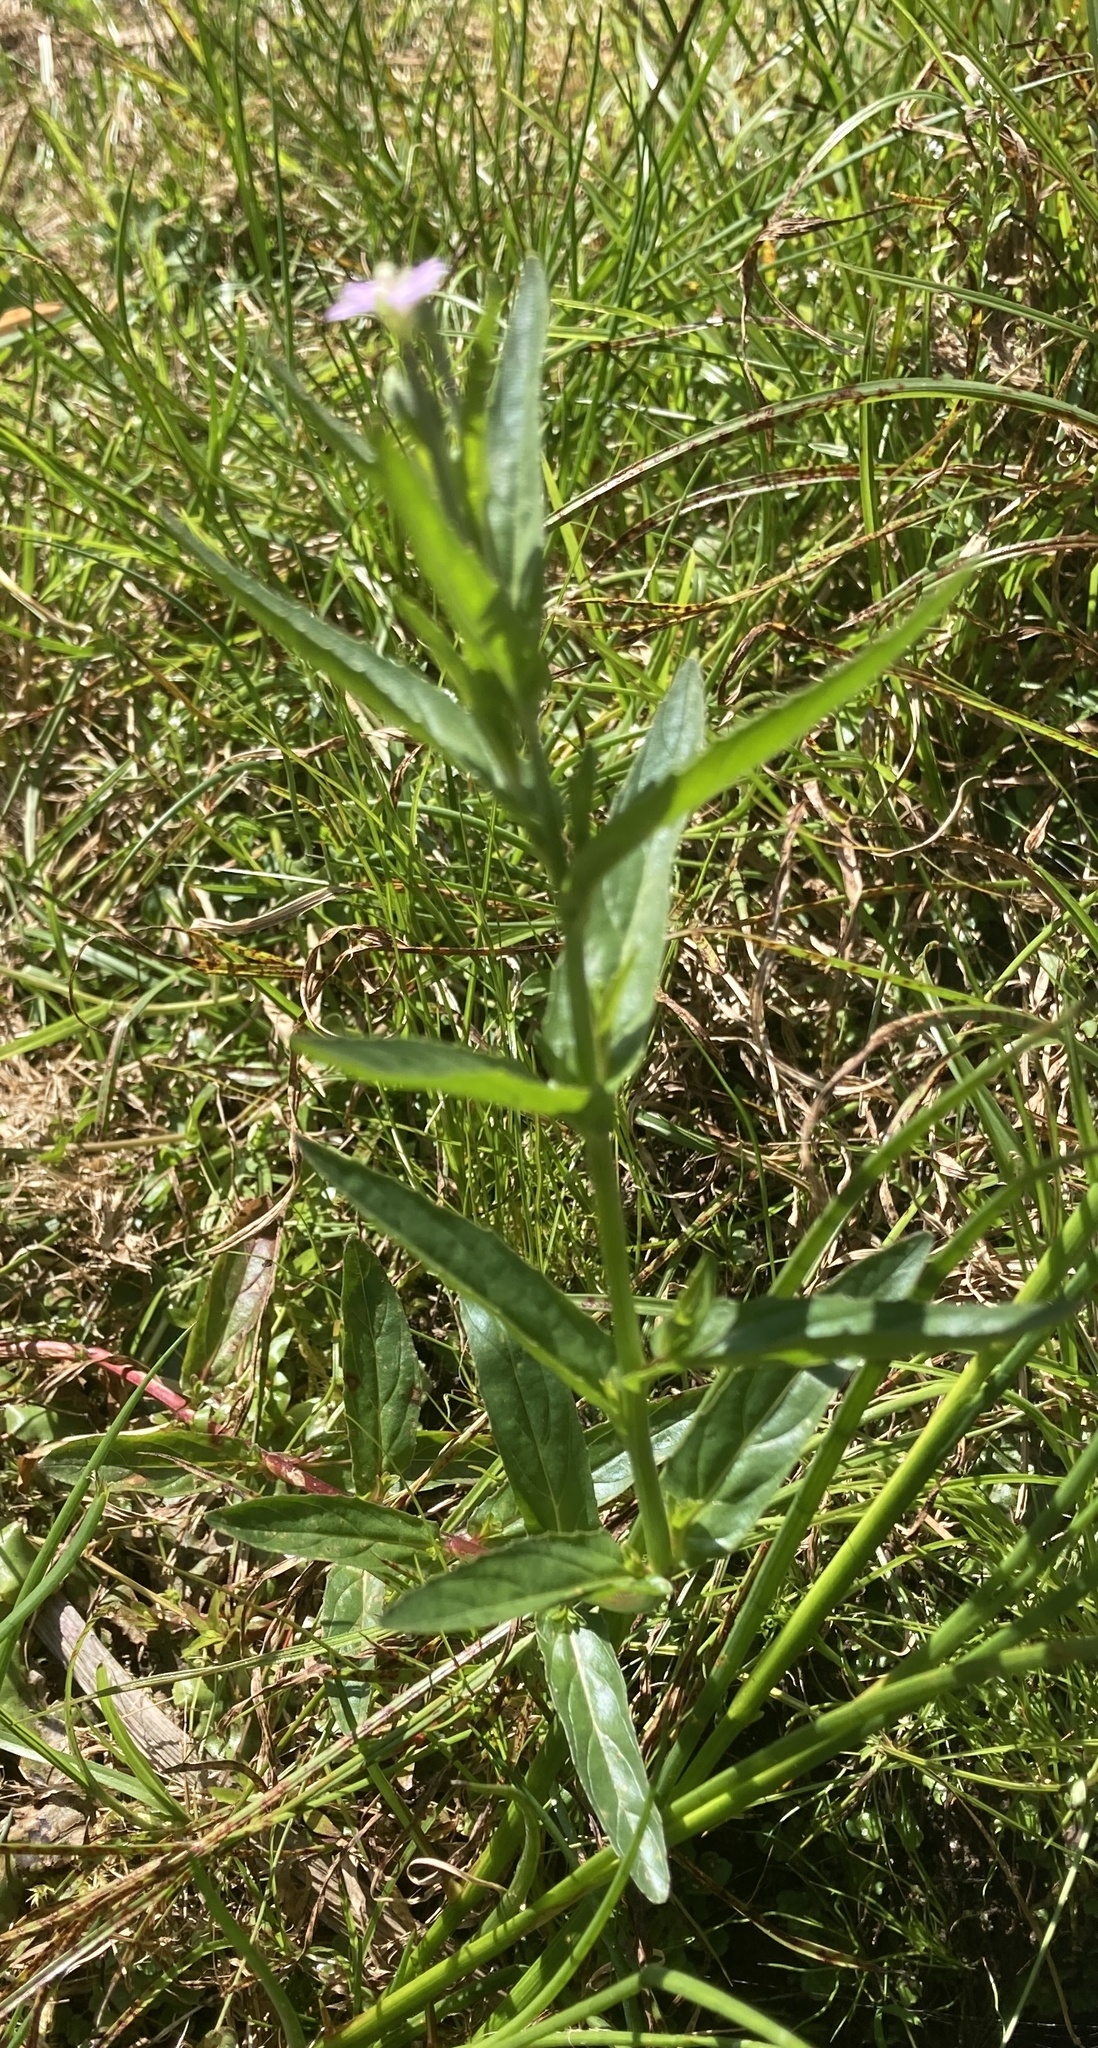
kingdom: Plantae
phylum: Tracheophyta
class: Magnoliopsida
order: Myrtales
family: Onagraceae
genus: Epilobium
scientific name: Epilobium obscurum
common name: Short-fruited willowherb
